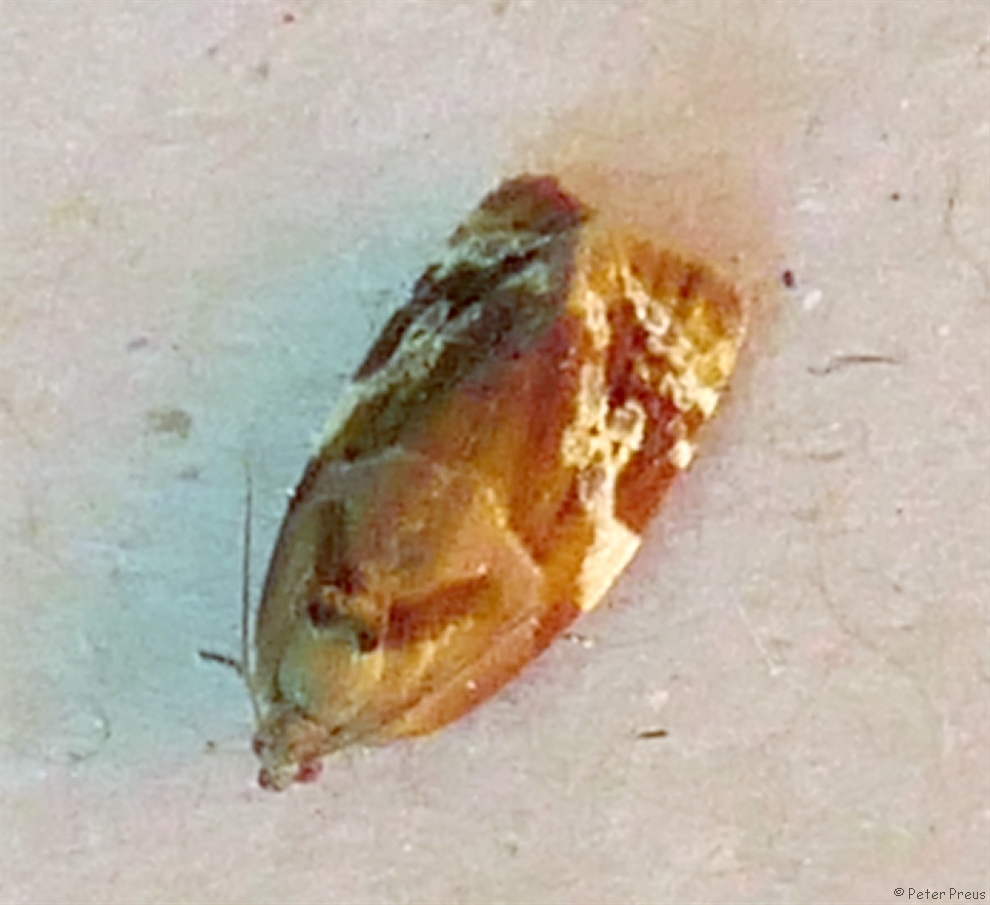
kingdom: Animalia
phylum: Arthropoda
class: Insecta
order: Lepidoptera
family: Tortricidae
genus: Ditula
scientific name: Ditula angustiorana
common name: Red-barred tortrix
